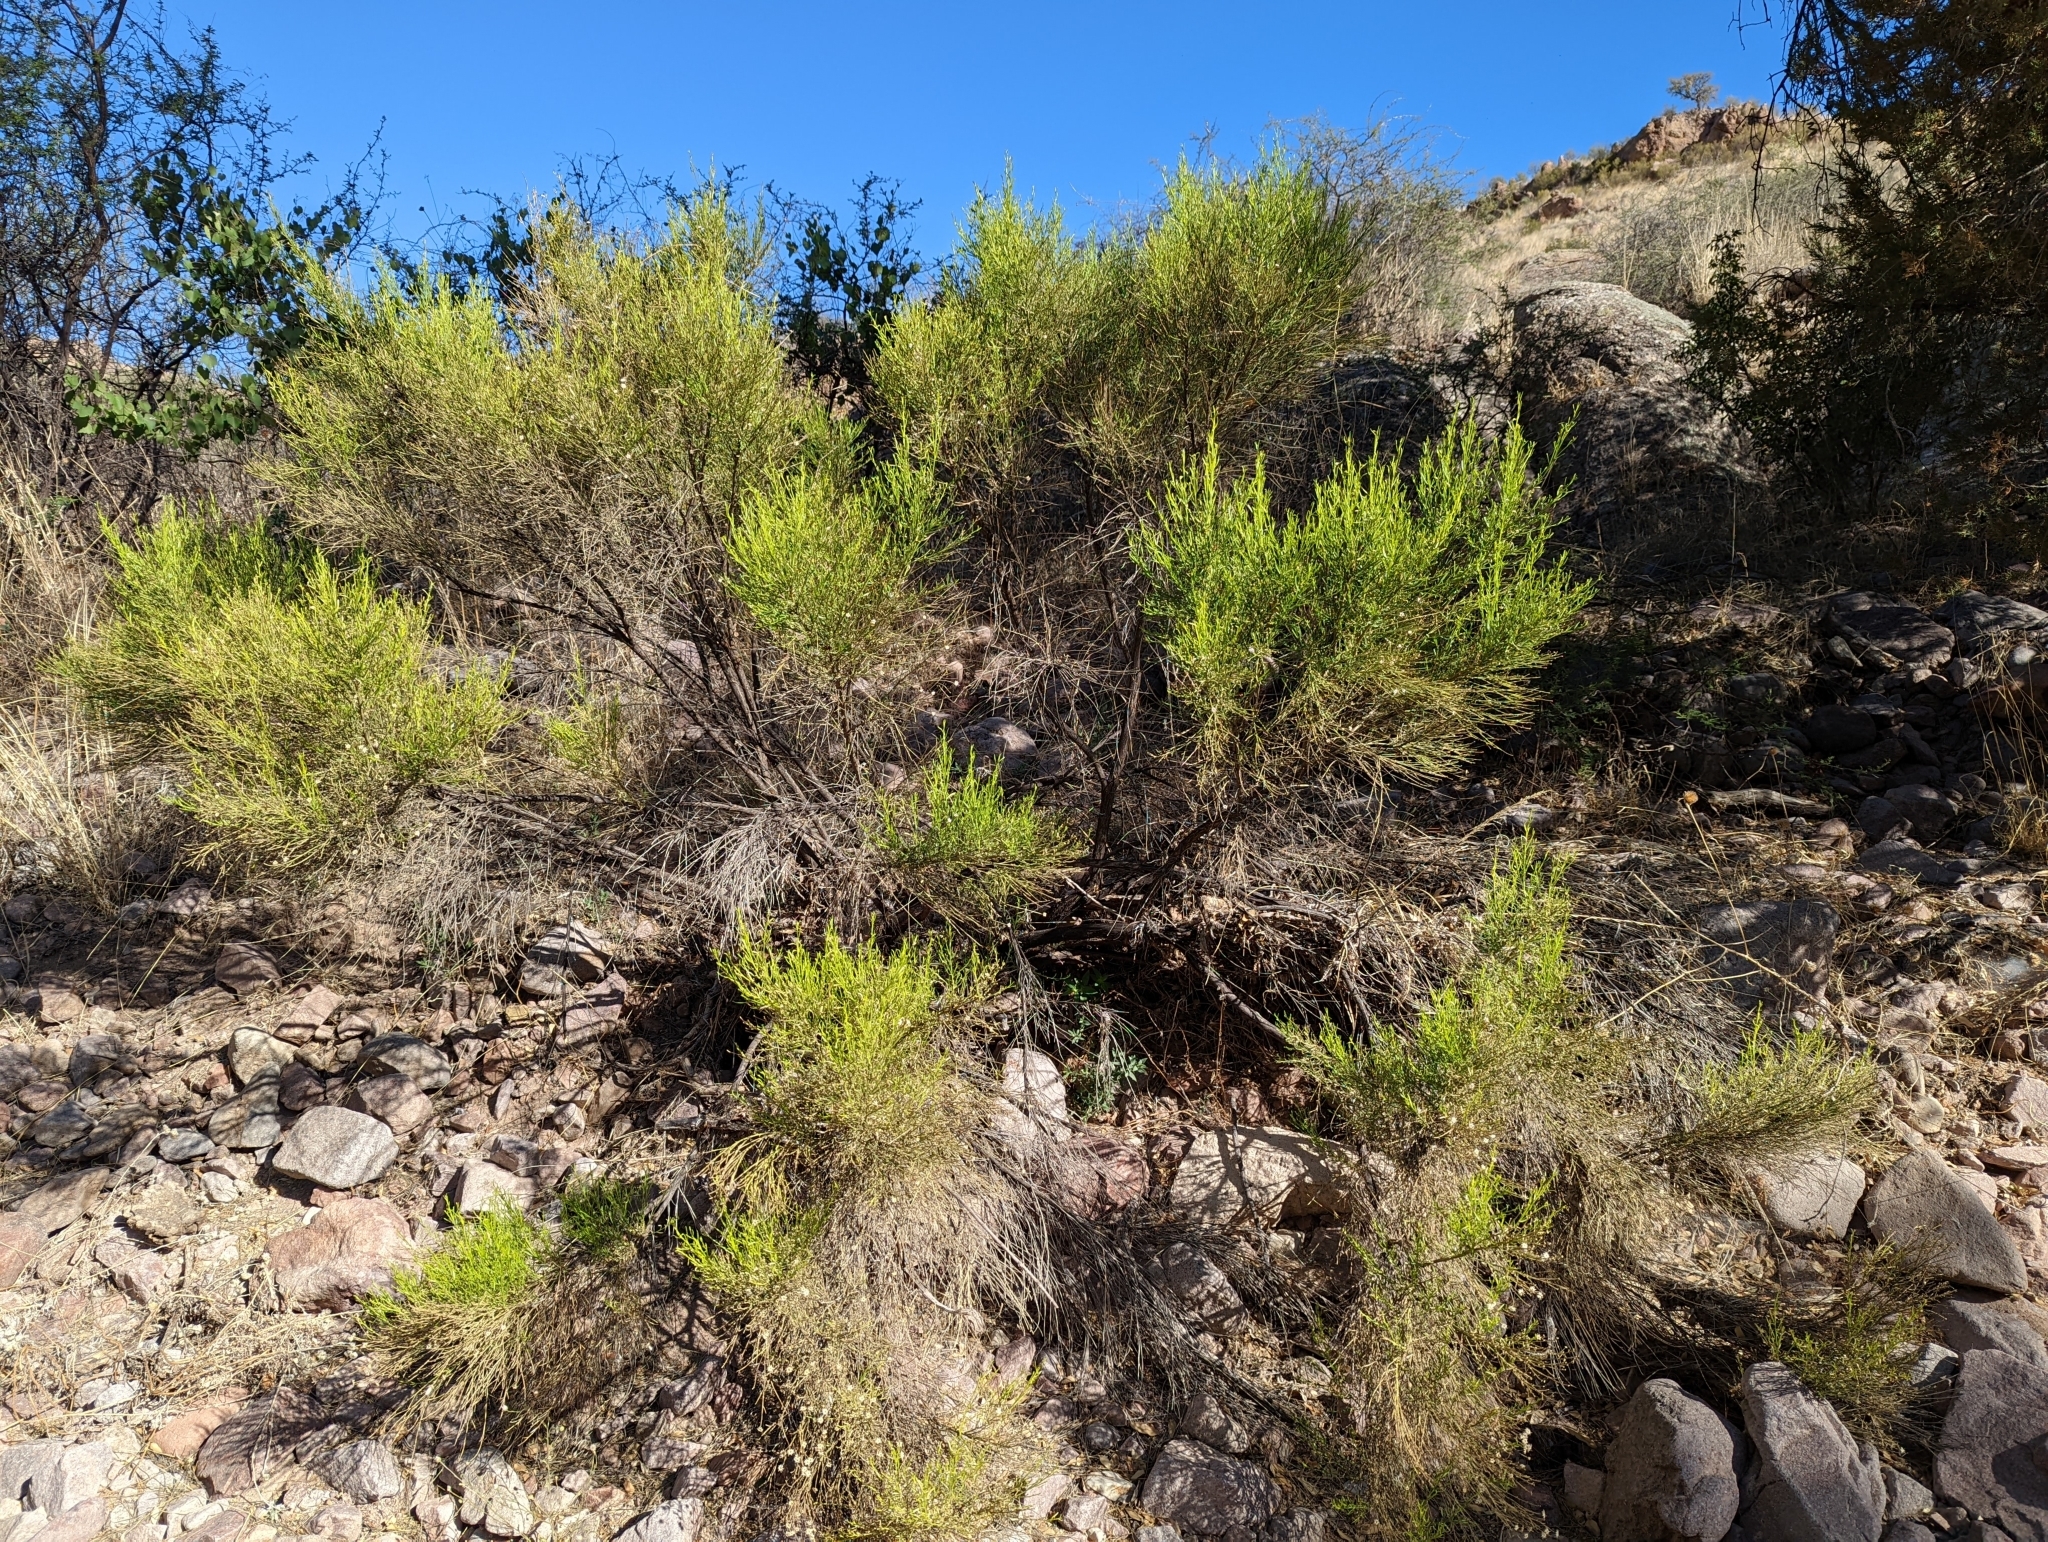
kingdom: Plantae
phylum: Tracheophyta
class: Magnoliopsida
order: Asterales
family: Asteraceae
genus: Baccharis
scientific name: Baccharis sarothroides
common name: Desert-broom
